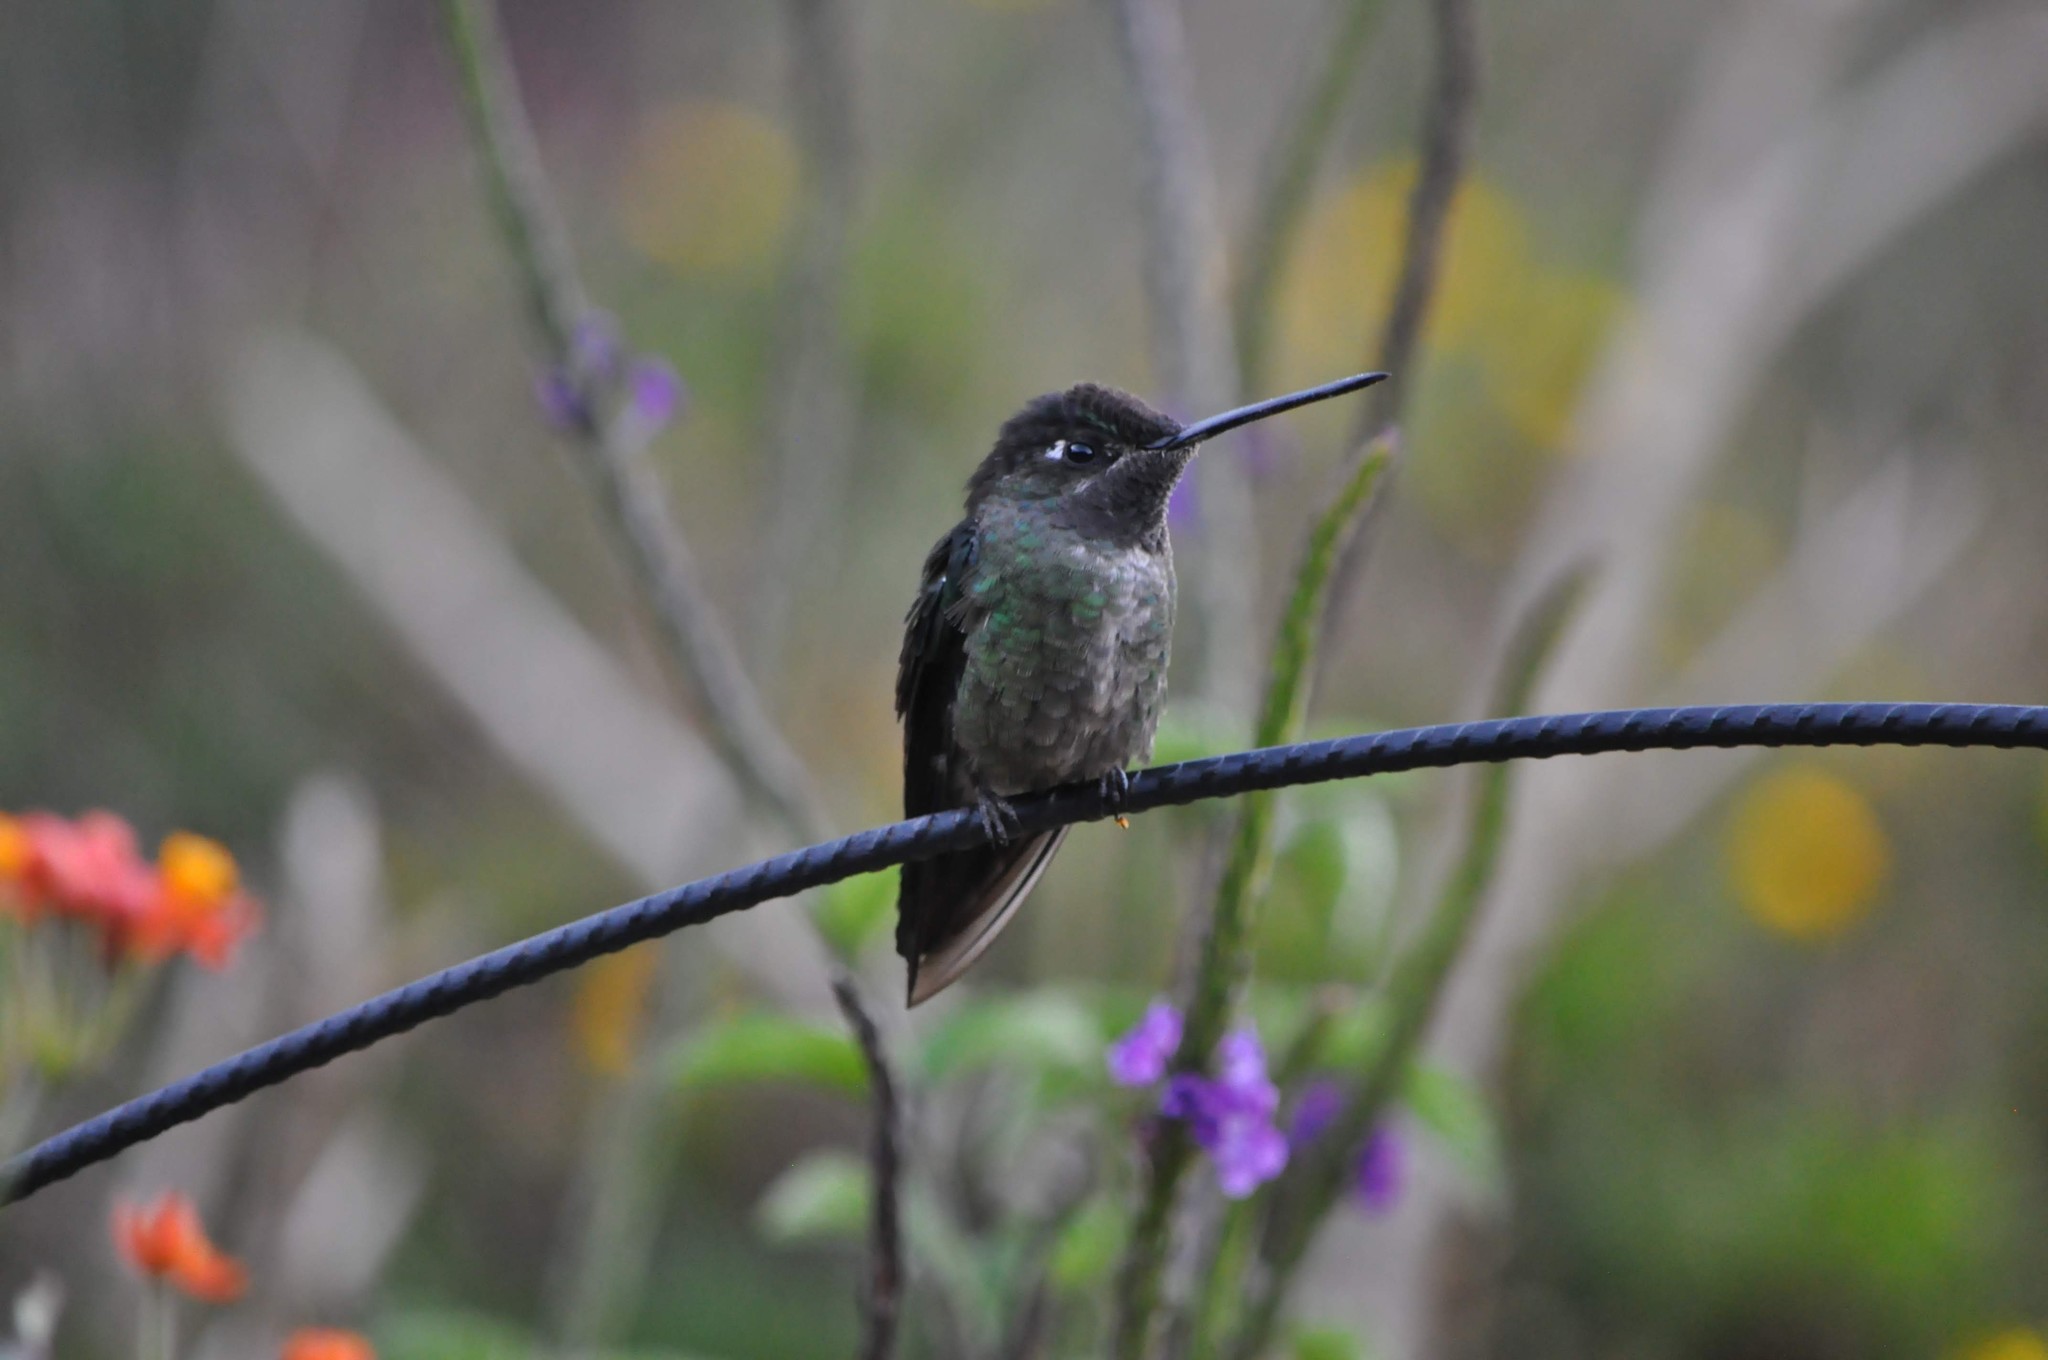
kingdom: Animalia
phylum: Chordata
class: Aves
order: Apodiformes
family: Trochilidae
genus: Eugenes
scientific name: Eugenes spectabilis
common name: Talamanca hummingbird
